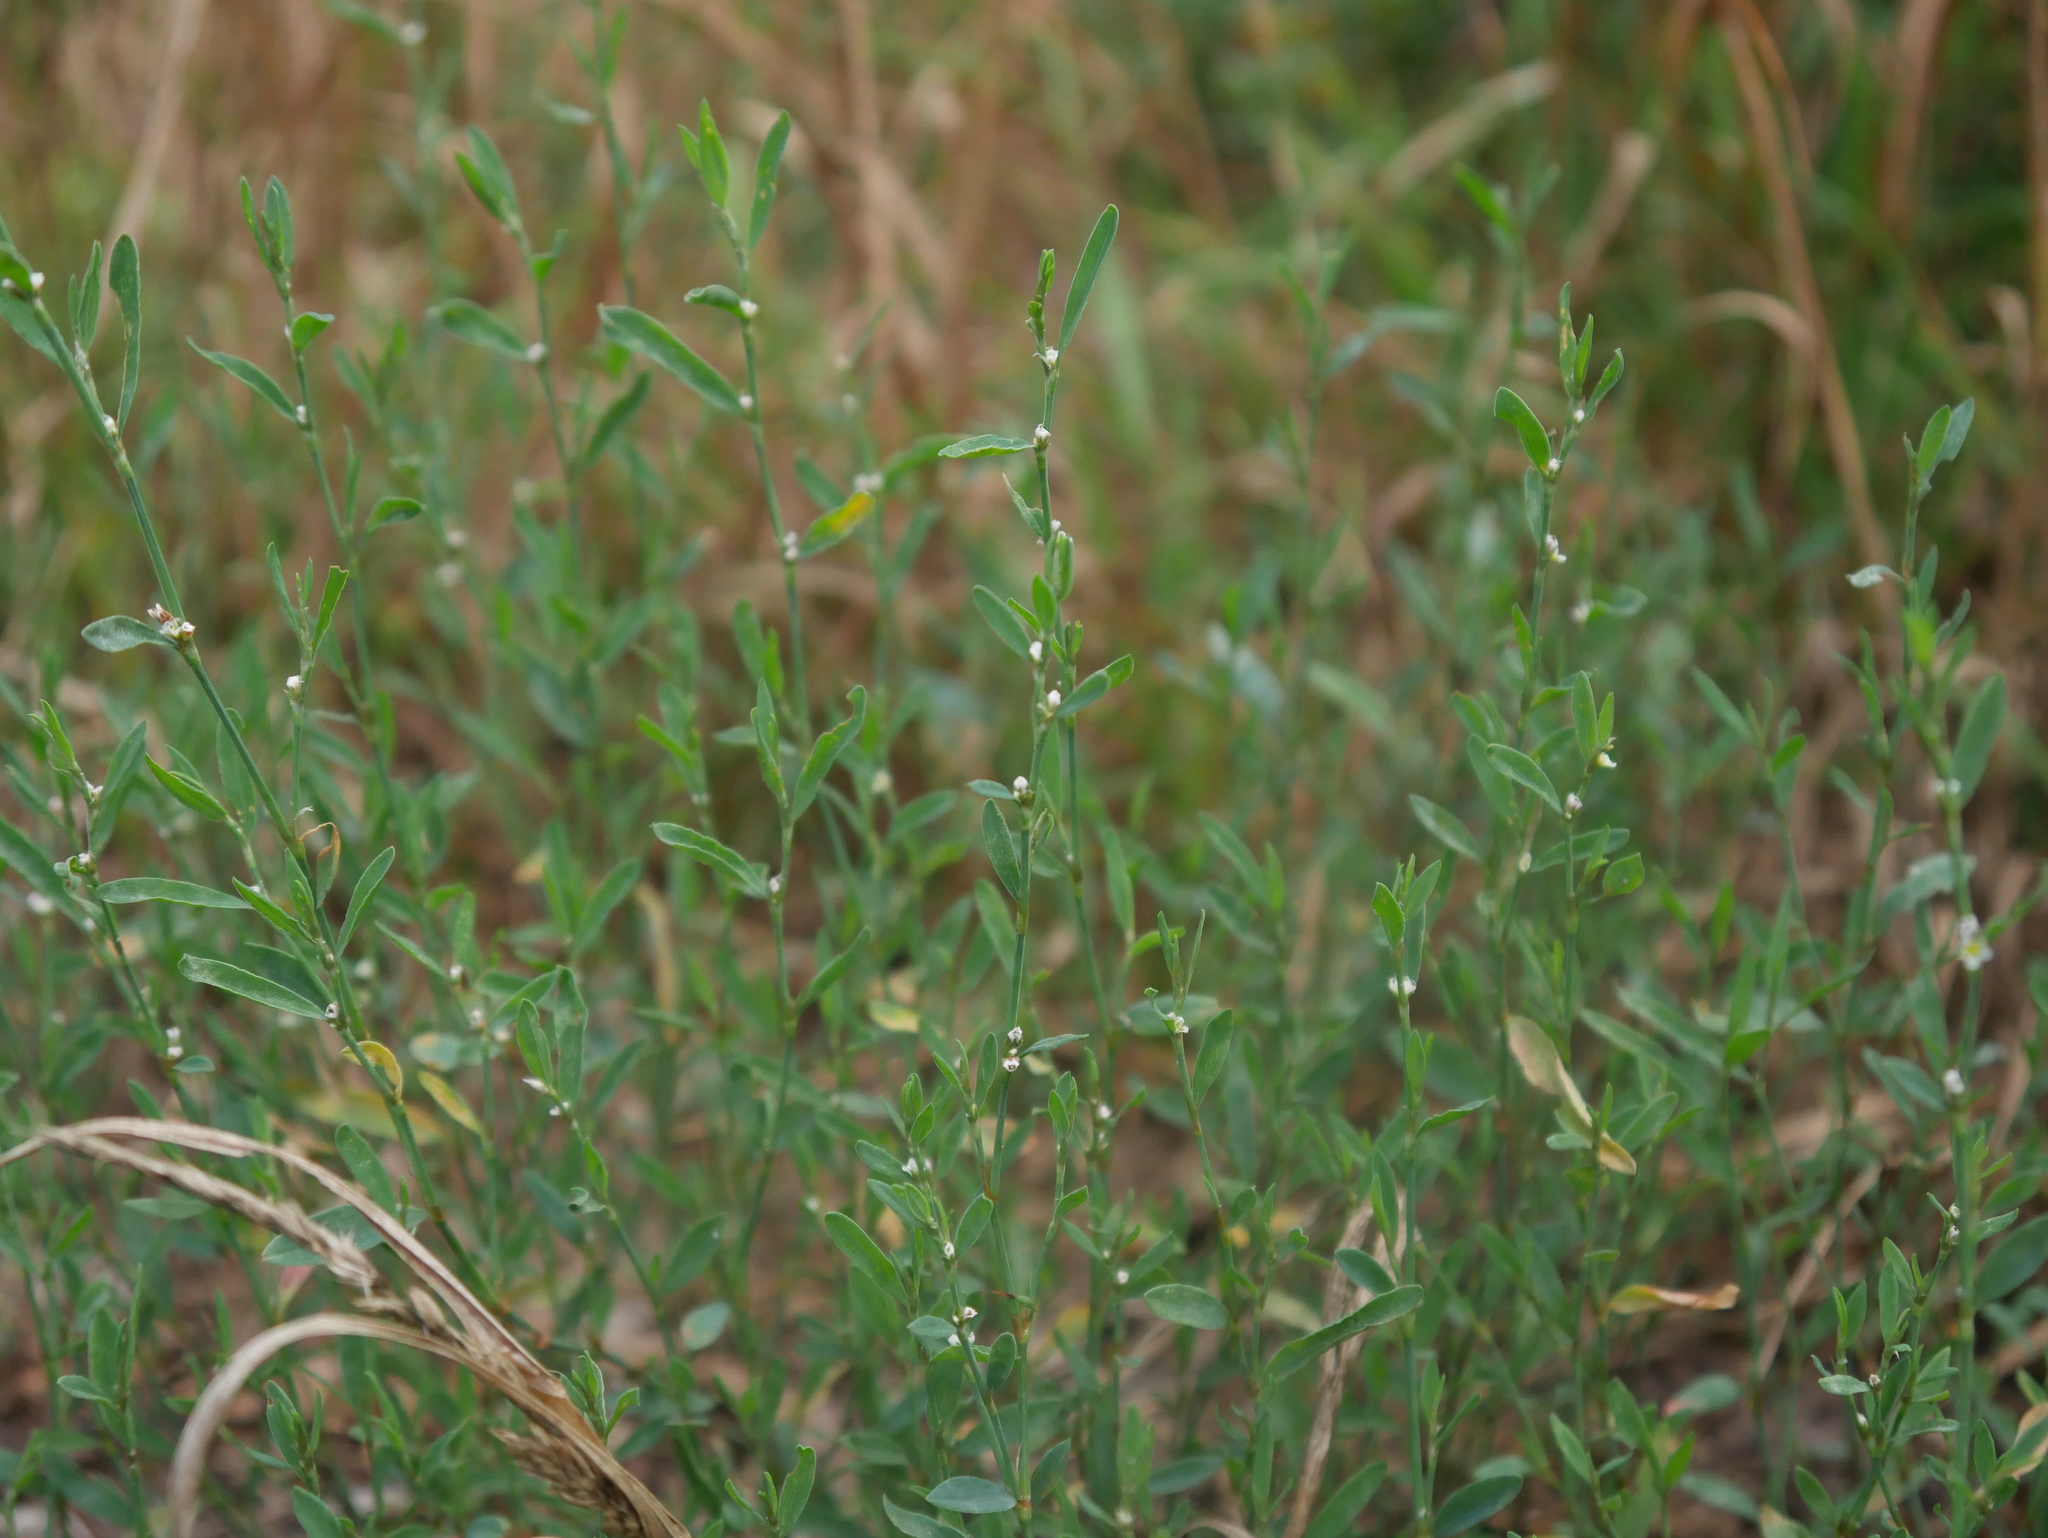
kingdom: Plantae
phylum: Tracheophyta
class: Magnoliopsida
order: Caryophyllales
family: Polygonaceae
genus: Polygonum
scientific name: Polygonum aviculare
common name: Prostrate knotweed
